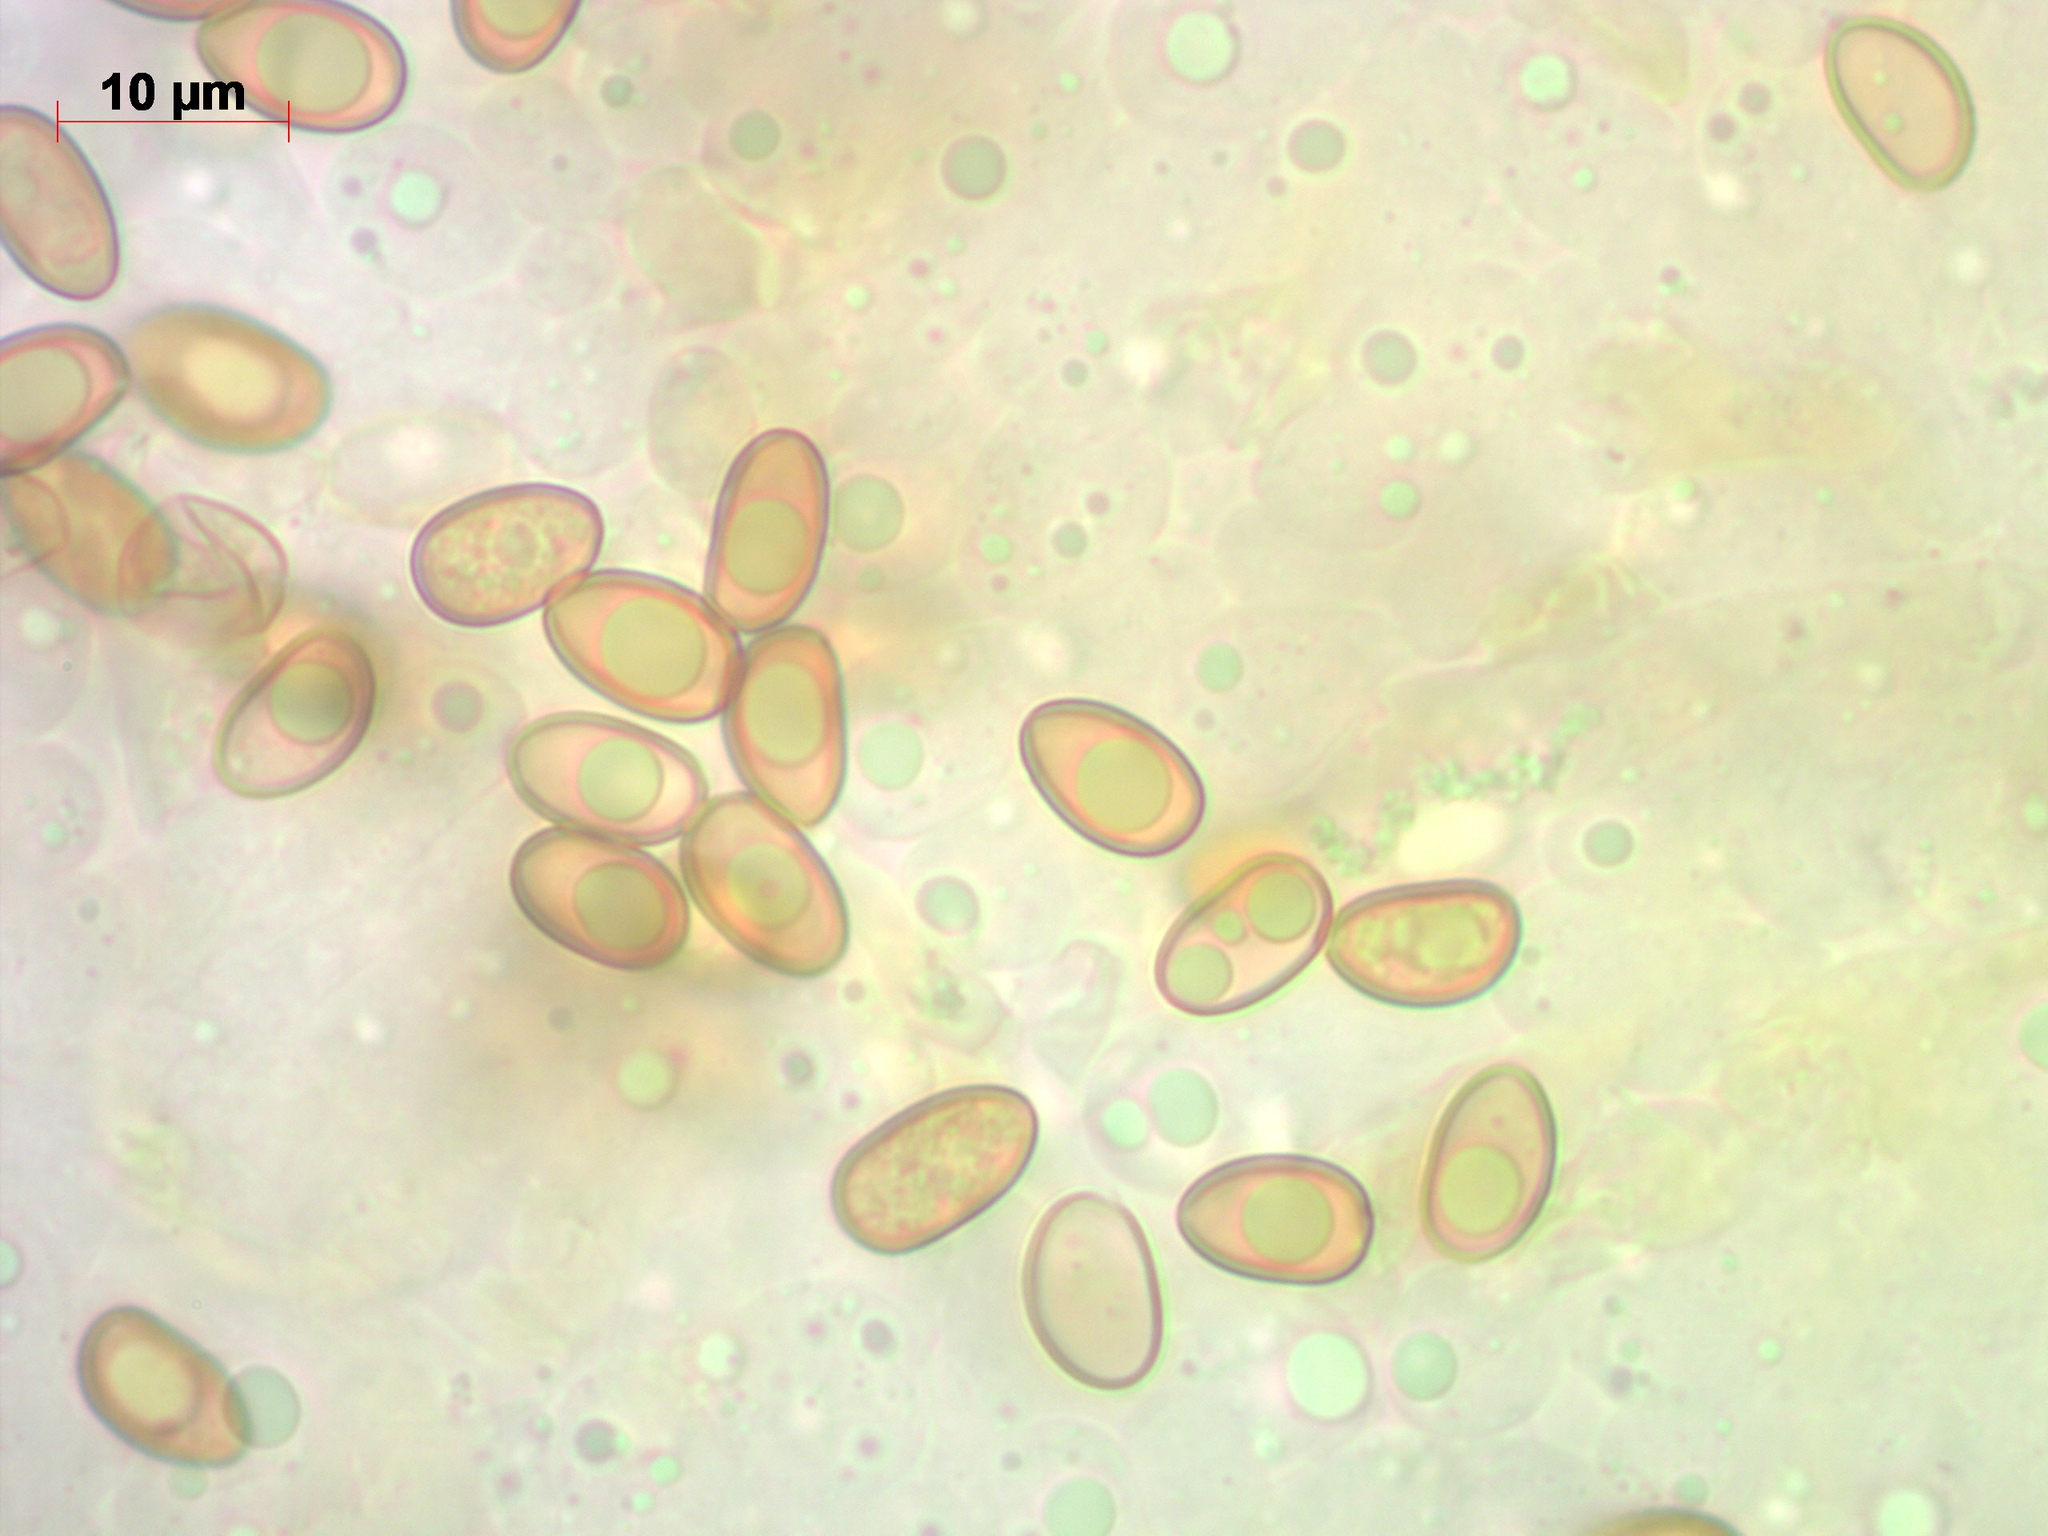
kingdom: Fungi
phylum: Basidiomycota
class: Agaricomycetes
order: Agaricales
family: Inocybaceae
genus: Mallocybe
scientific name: Mallocybe leucoblema
